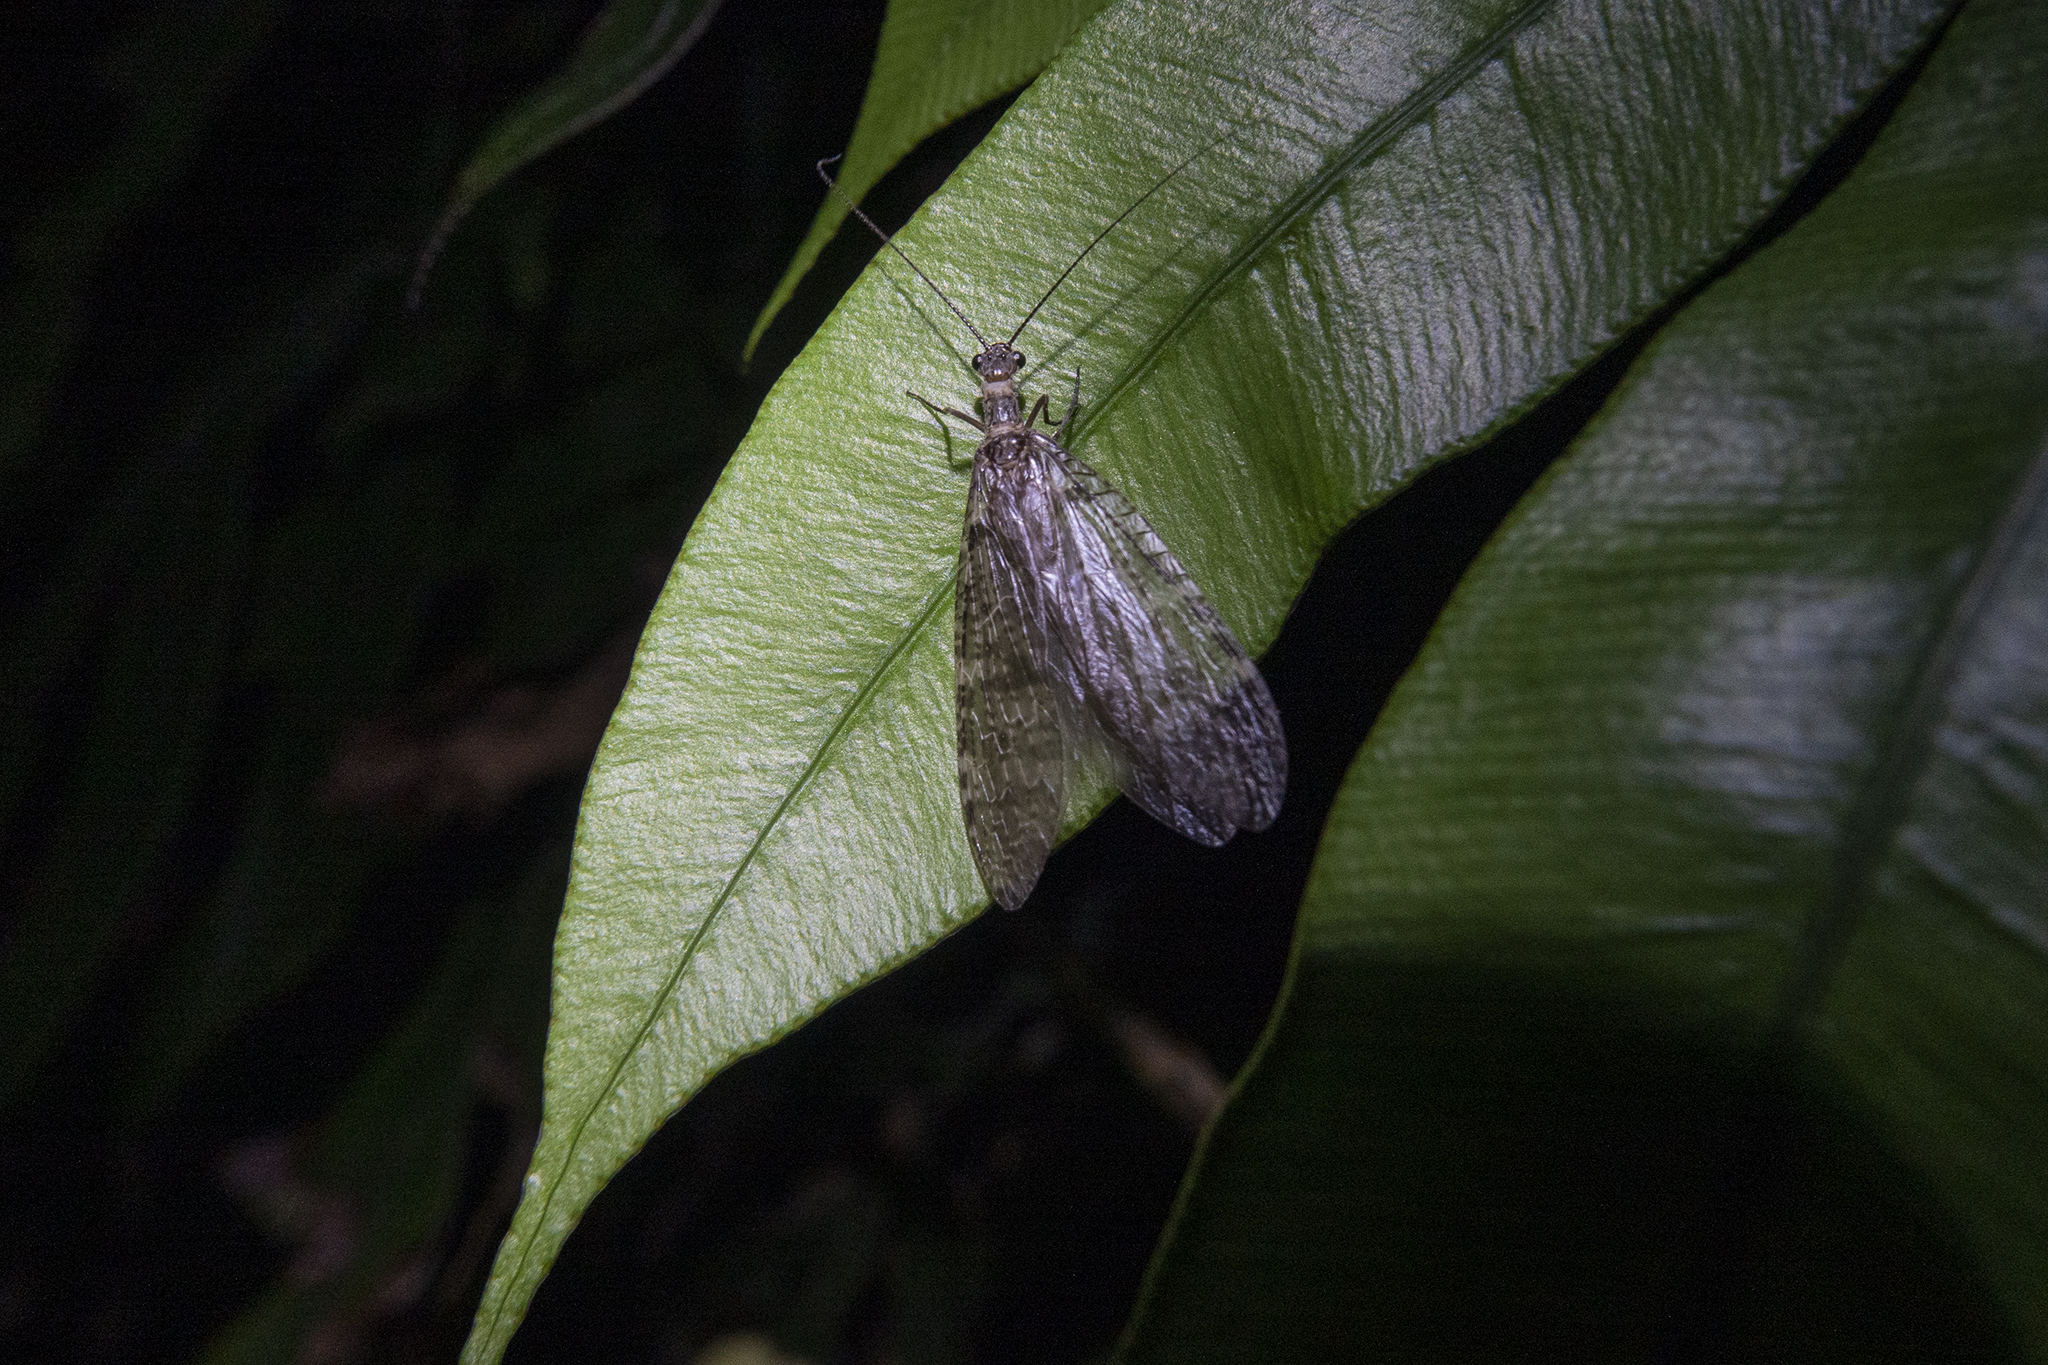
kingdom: Animalia
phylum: Arthropoda
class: Insecta
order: Megaloptera
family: Corydalidae
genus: Archichauliodes
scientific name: Archichauliodes diversus
